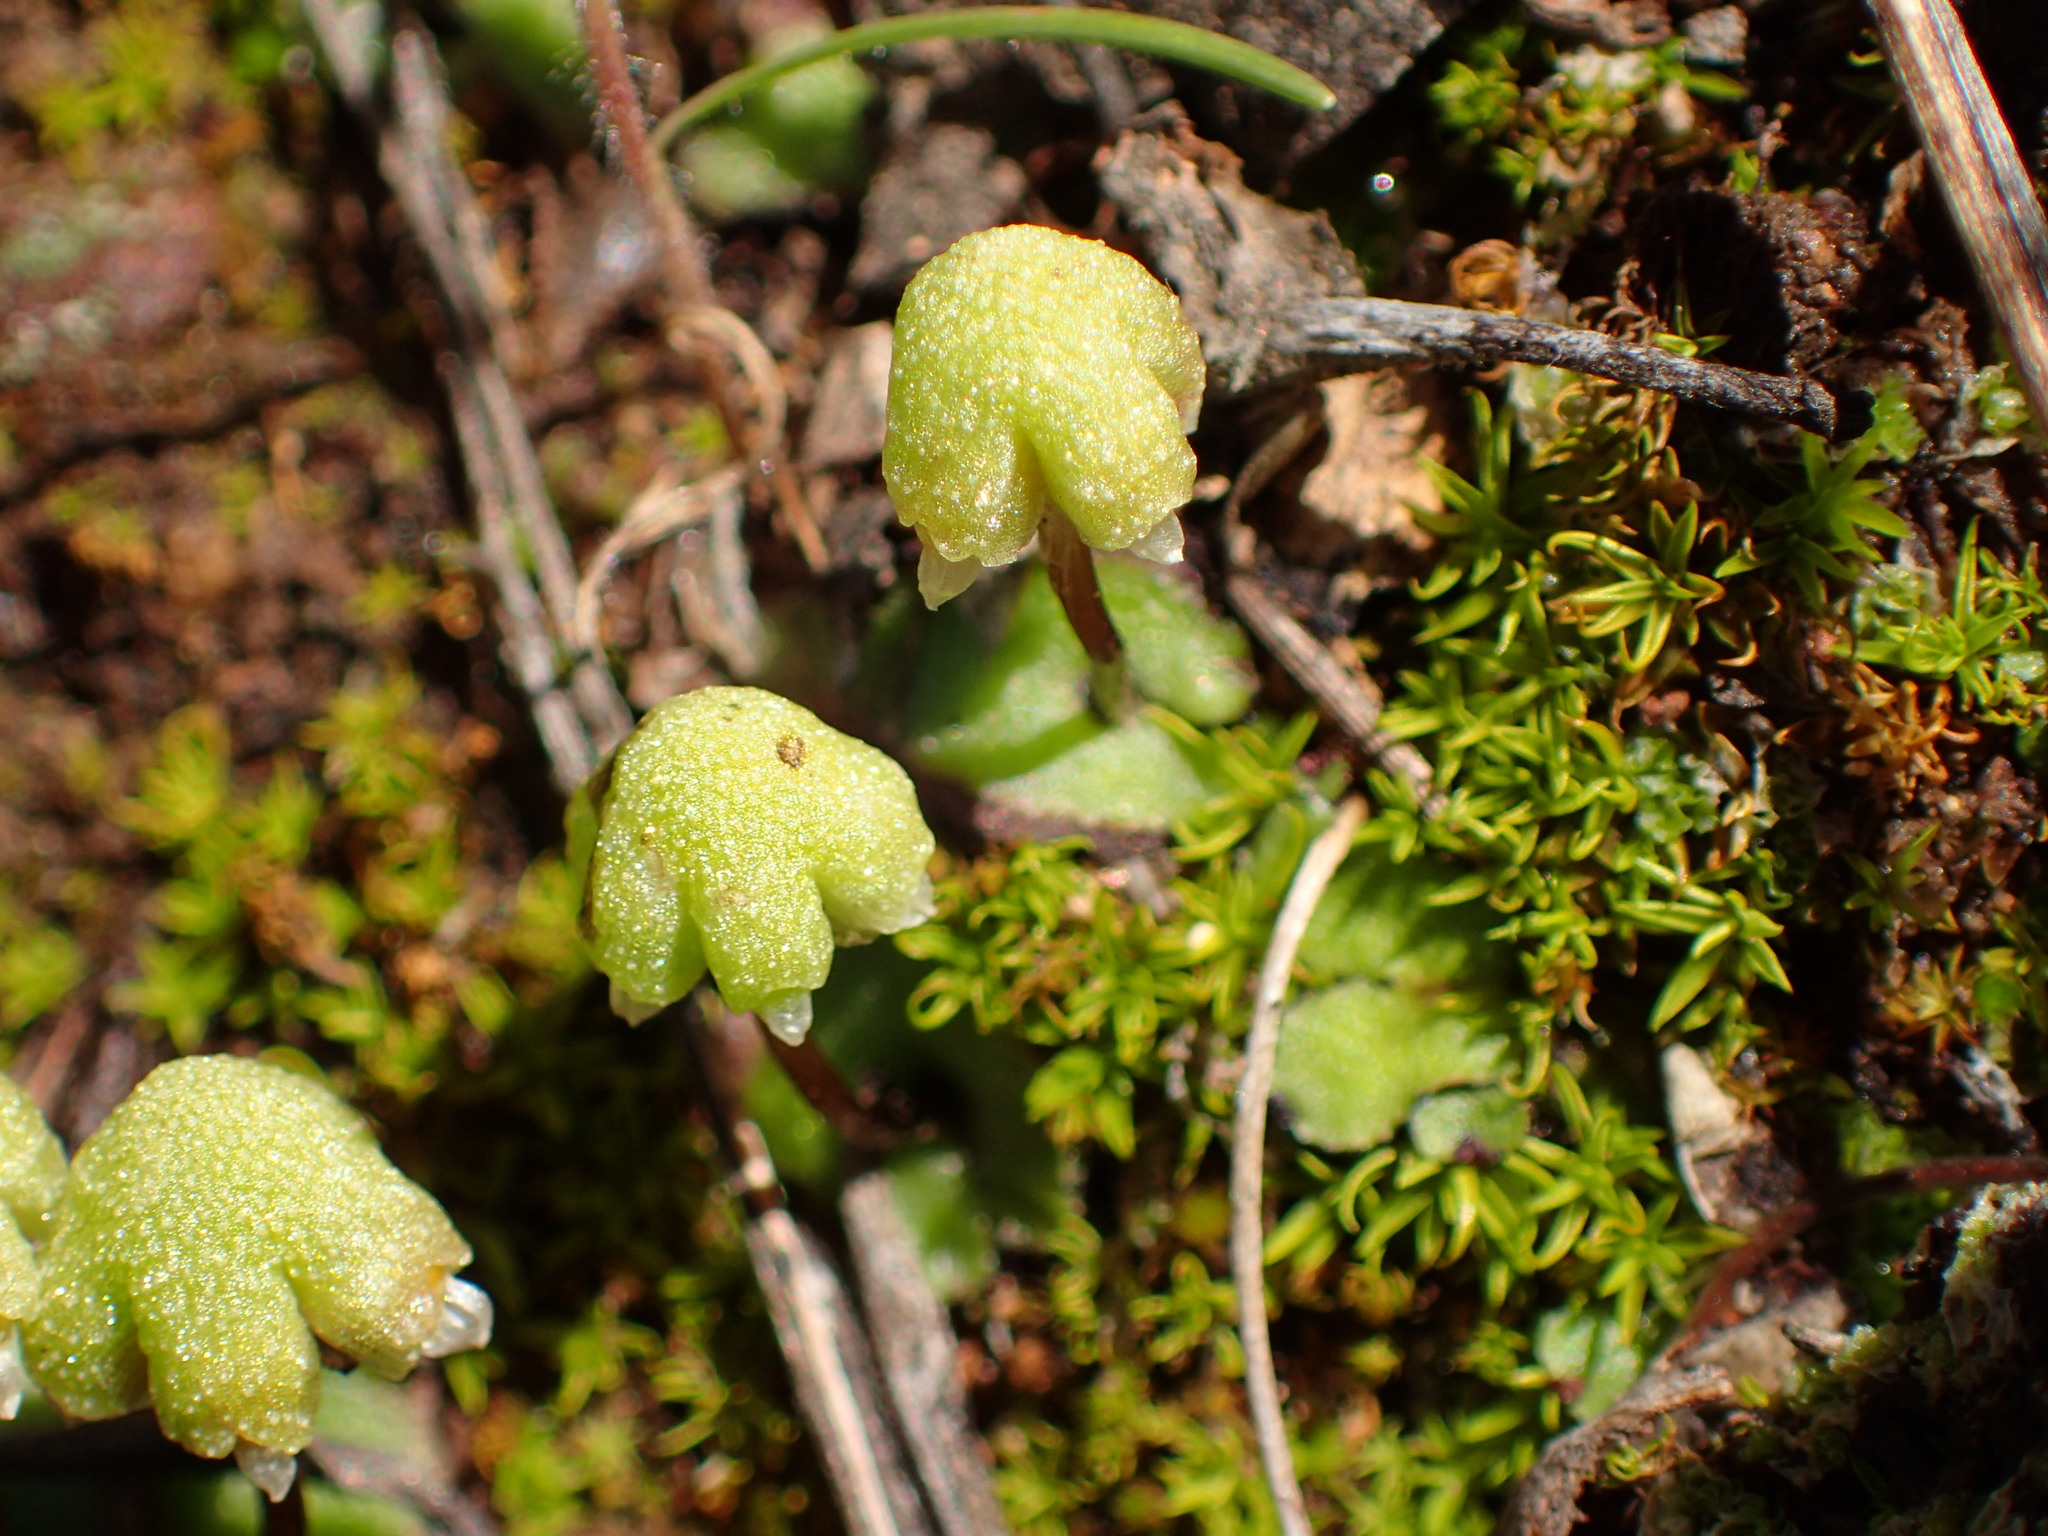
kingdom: Plantae
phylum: Marchantiophyta
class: Marchantiopsida
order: Marchantiales
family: Aytoniaceae
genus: Asterella
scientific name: Asterella californica
